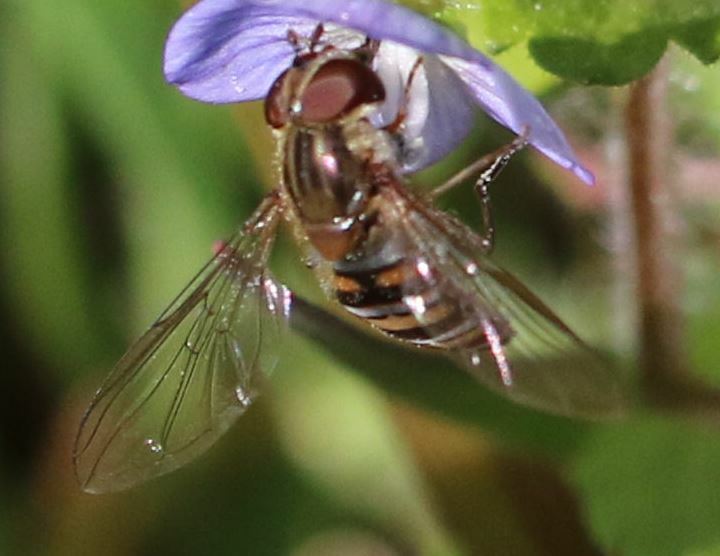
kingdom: Animalia
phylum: Arthropoda
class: Insecta
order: Diptera
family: Syrphidae
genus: Episyrphus
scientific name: Episyrphus balteatus
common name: Marmalade hoverfly
